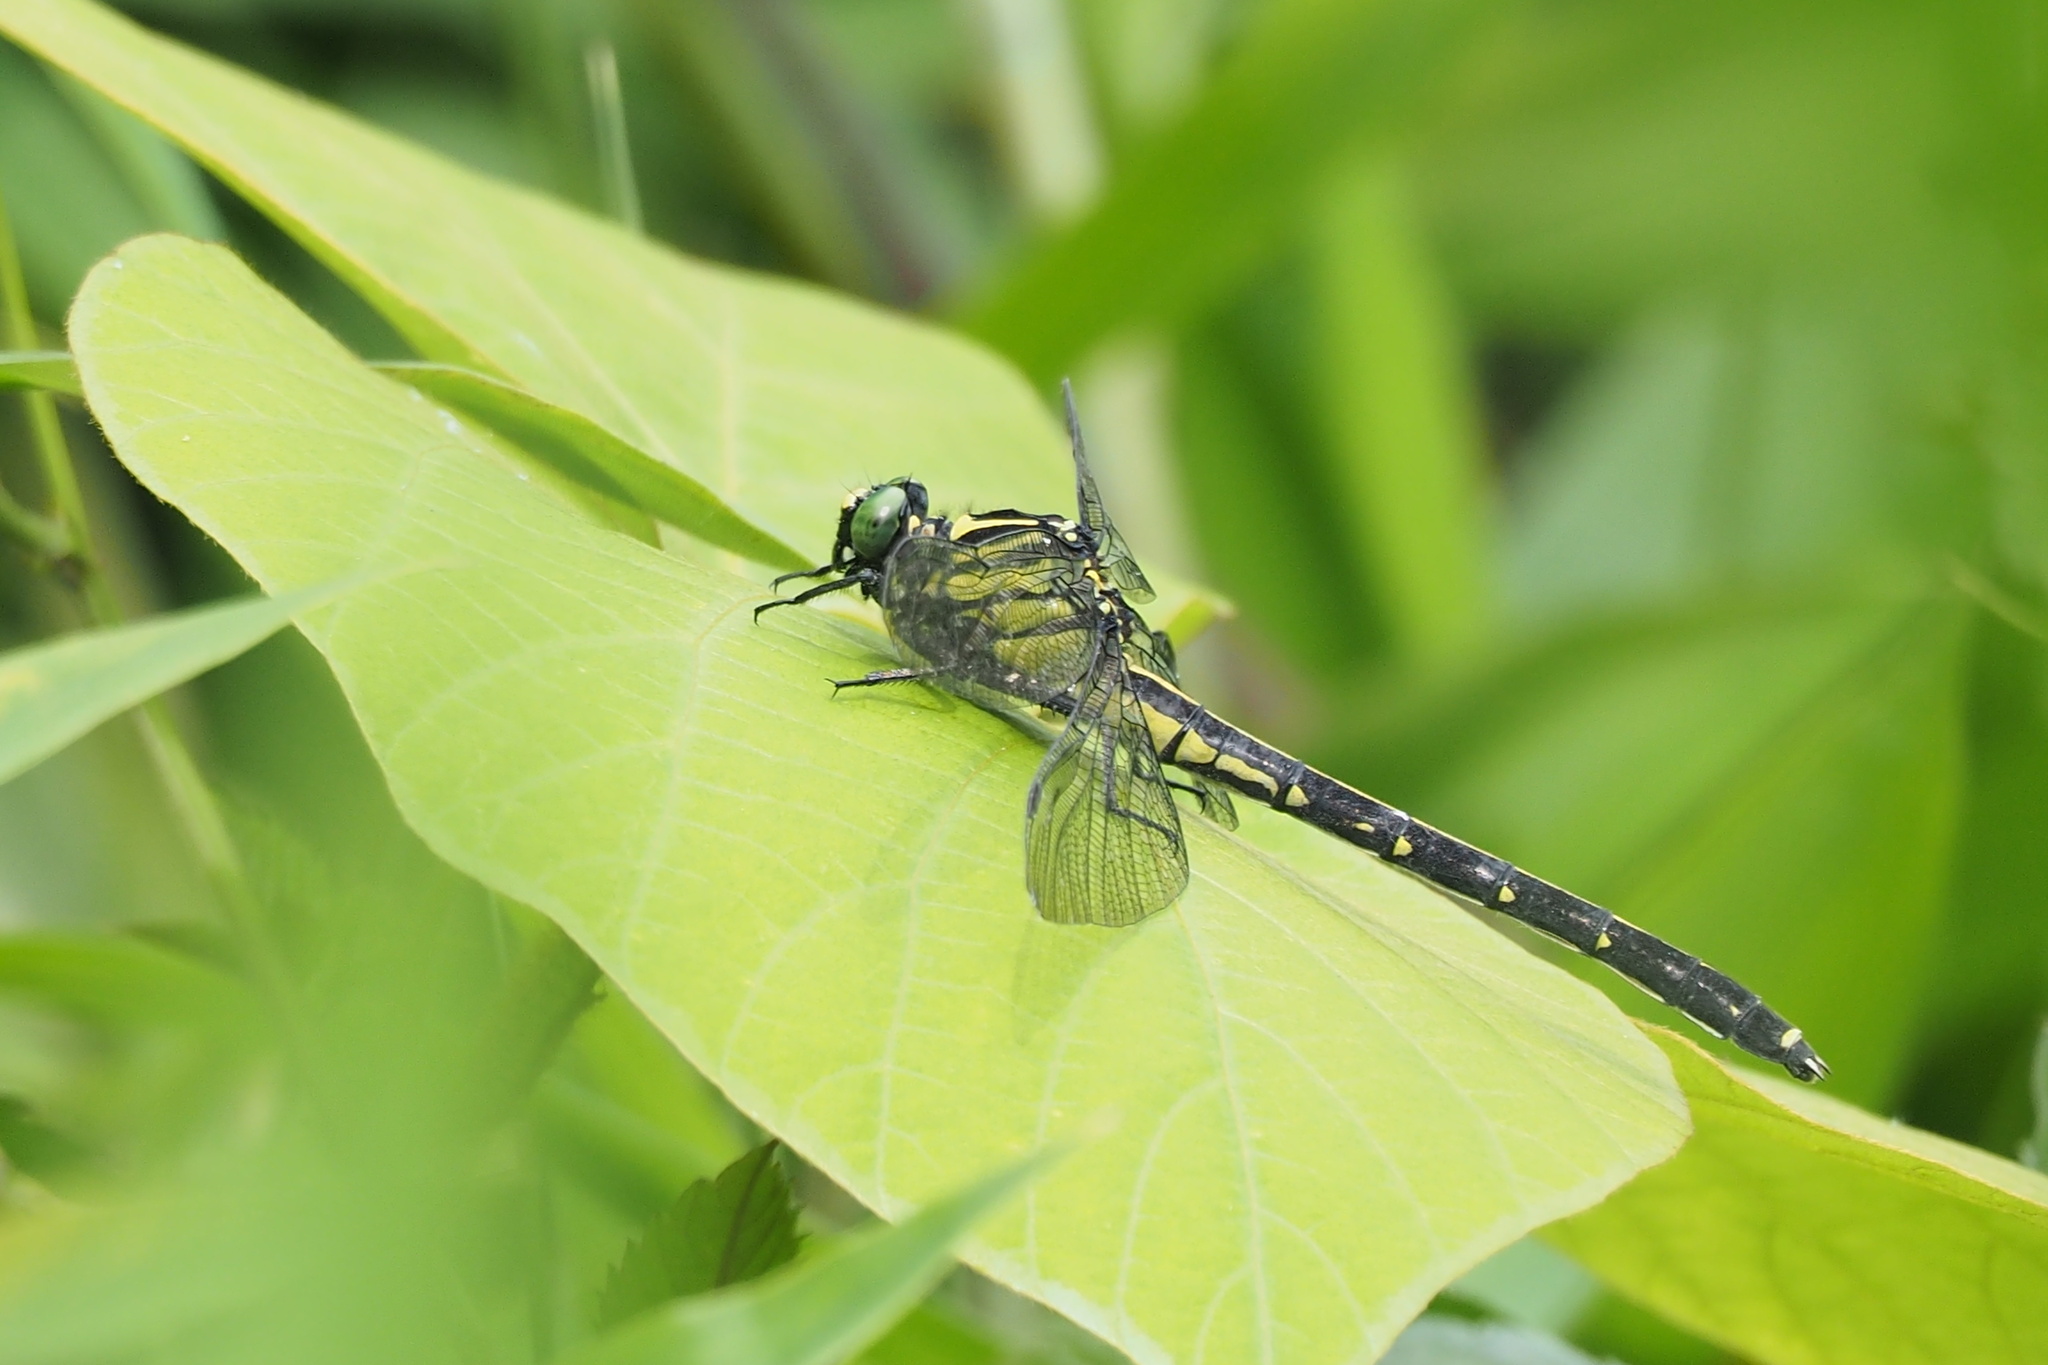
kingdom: Animalia
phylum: Arthropoda
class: Insecta
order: Odonata
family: Gomphidae
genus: Asiagomphus
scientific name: Asiagomphus melaenops
